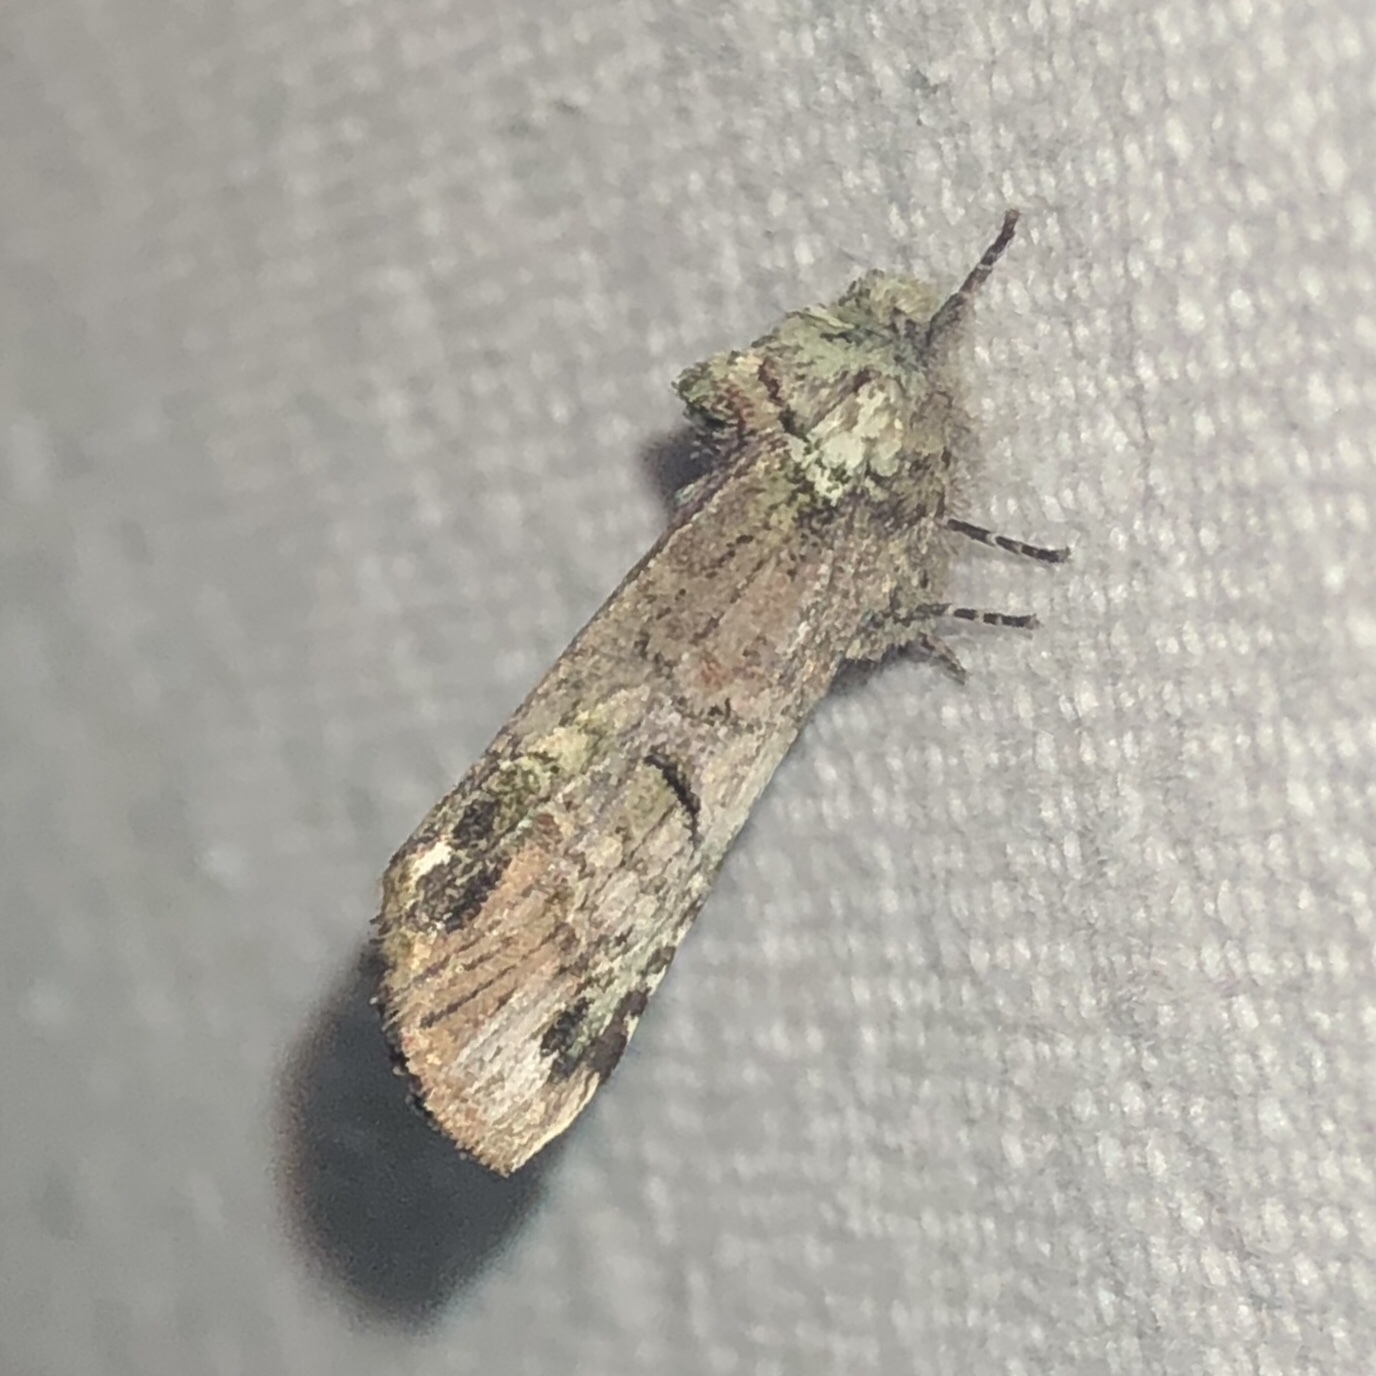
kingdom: Animalia
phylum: Arthropoda
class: Insecta
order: Lepidoptera
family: Notodontidae
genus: Schizura
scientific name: Schizura
